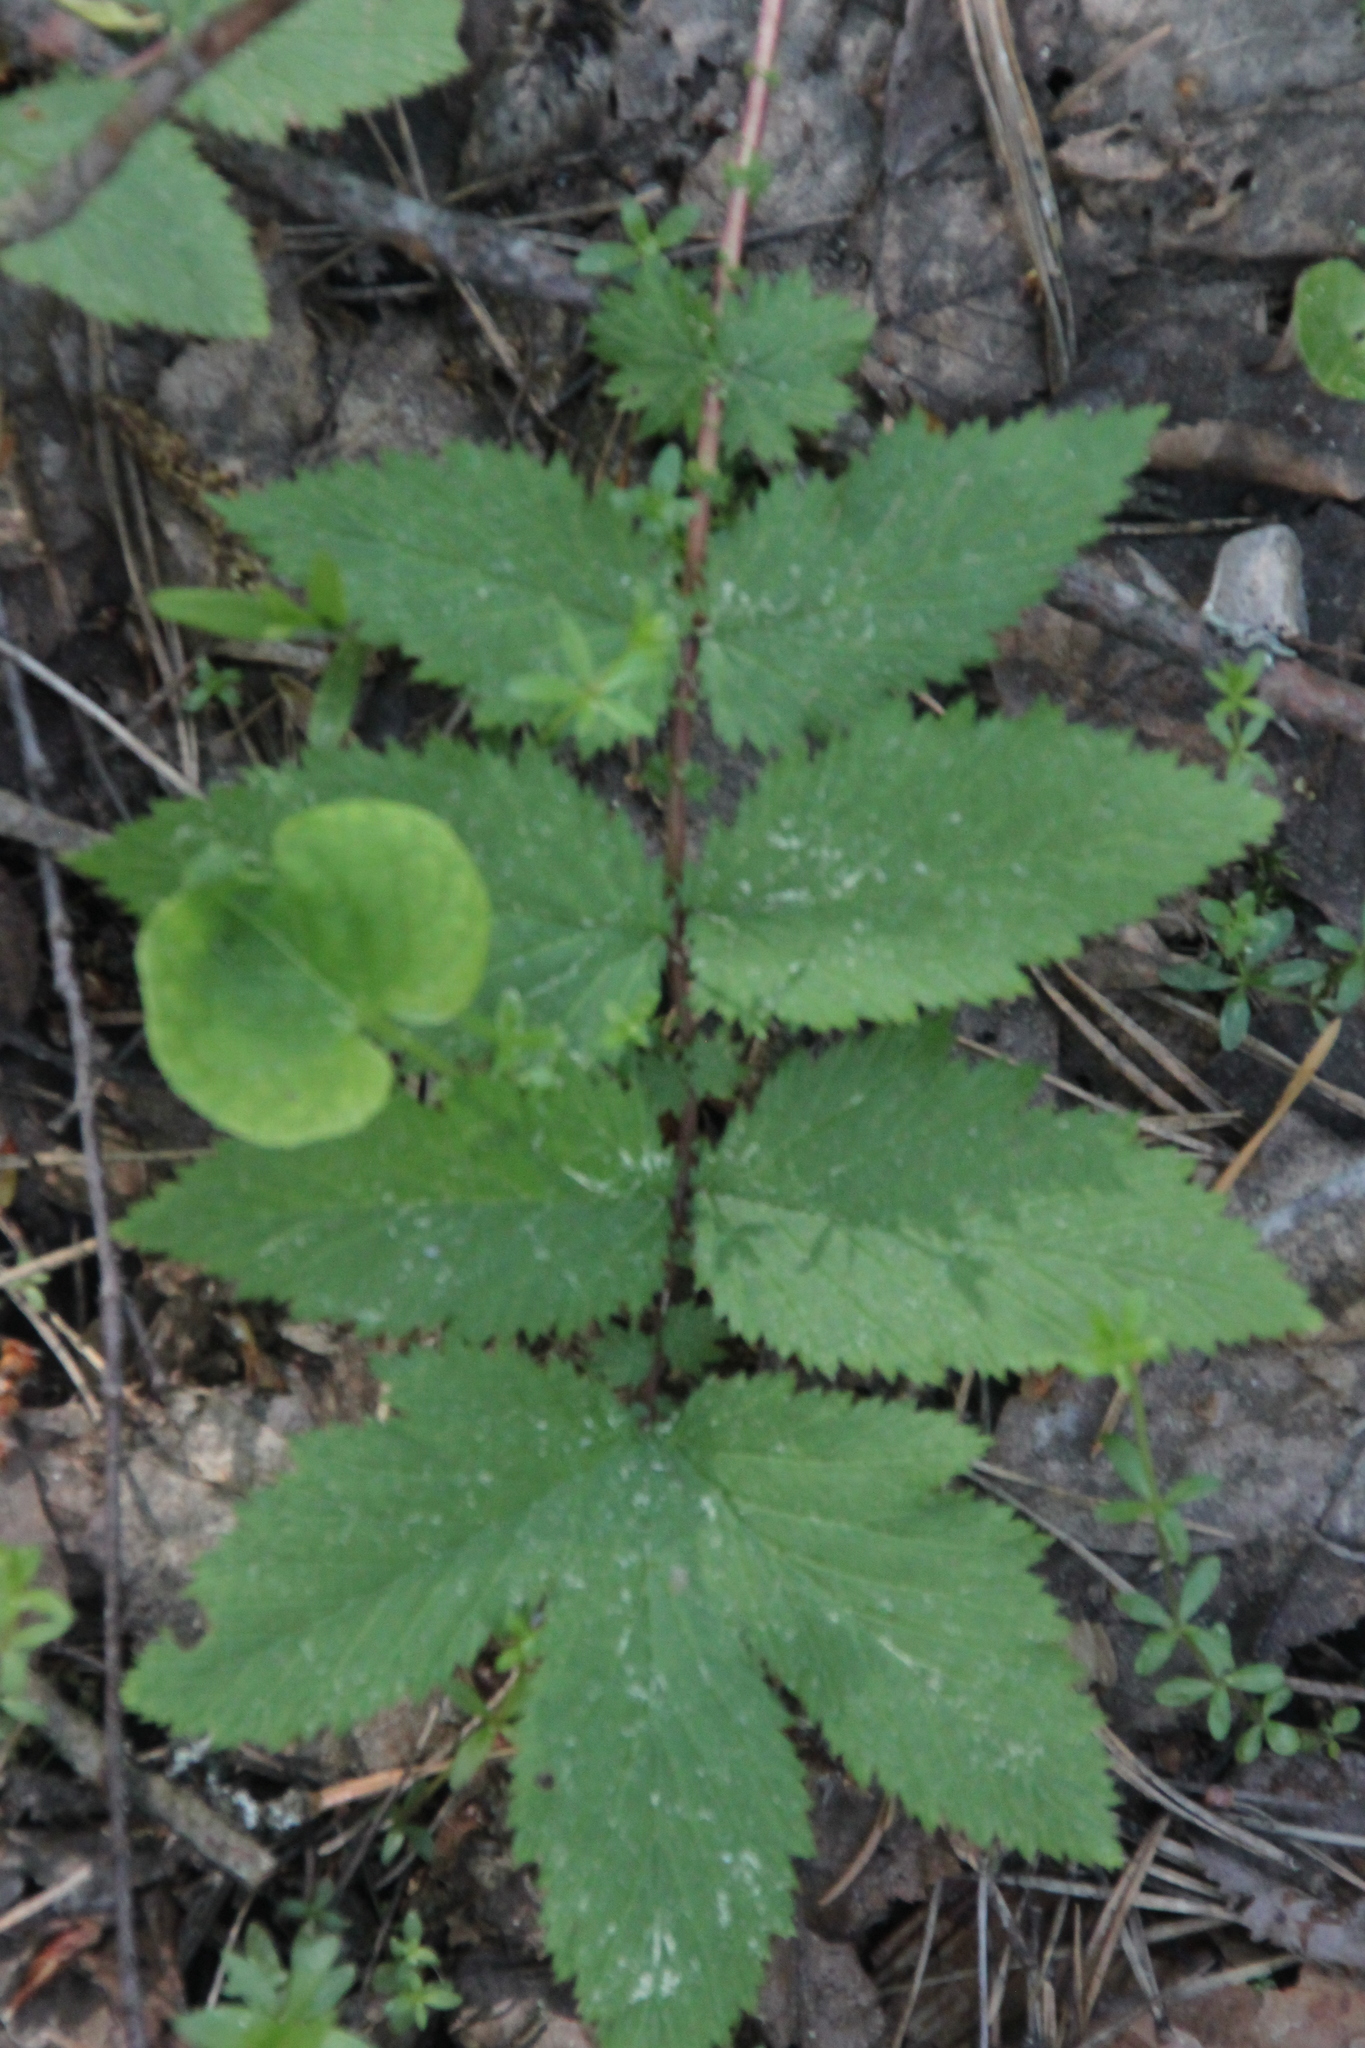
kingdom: Plantae
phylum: Tracheophyta
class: Magnoliopsida
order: Rosales
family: Rosaceae
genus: Filipendula
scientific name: Filipendula ulmaria
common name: Meadowsweet
